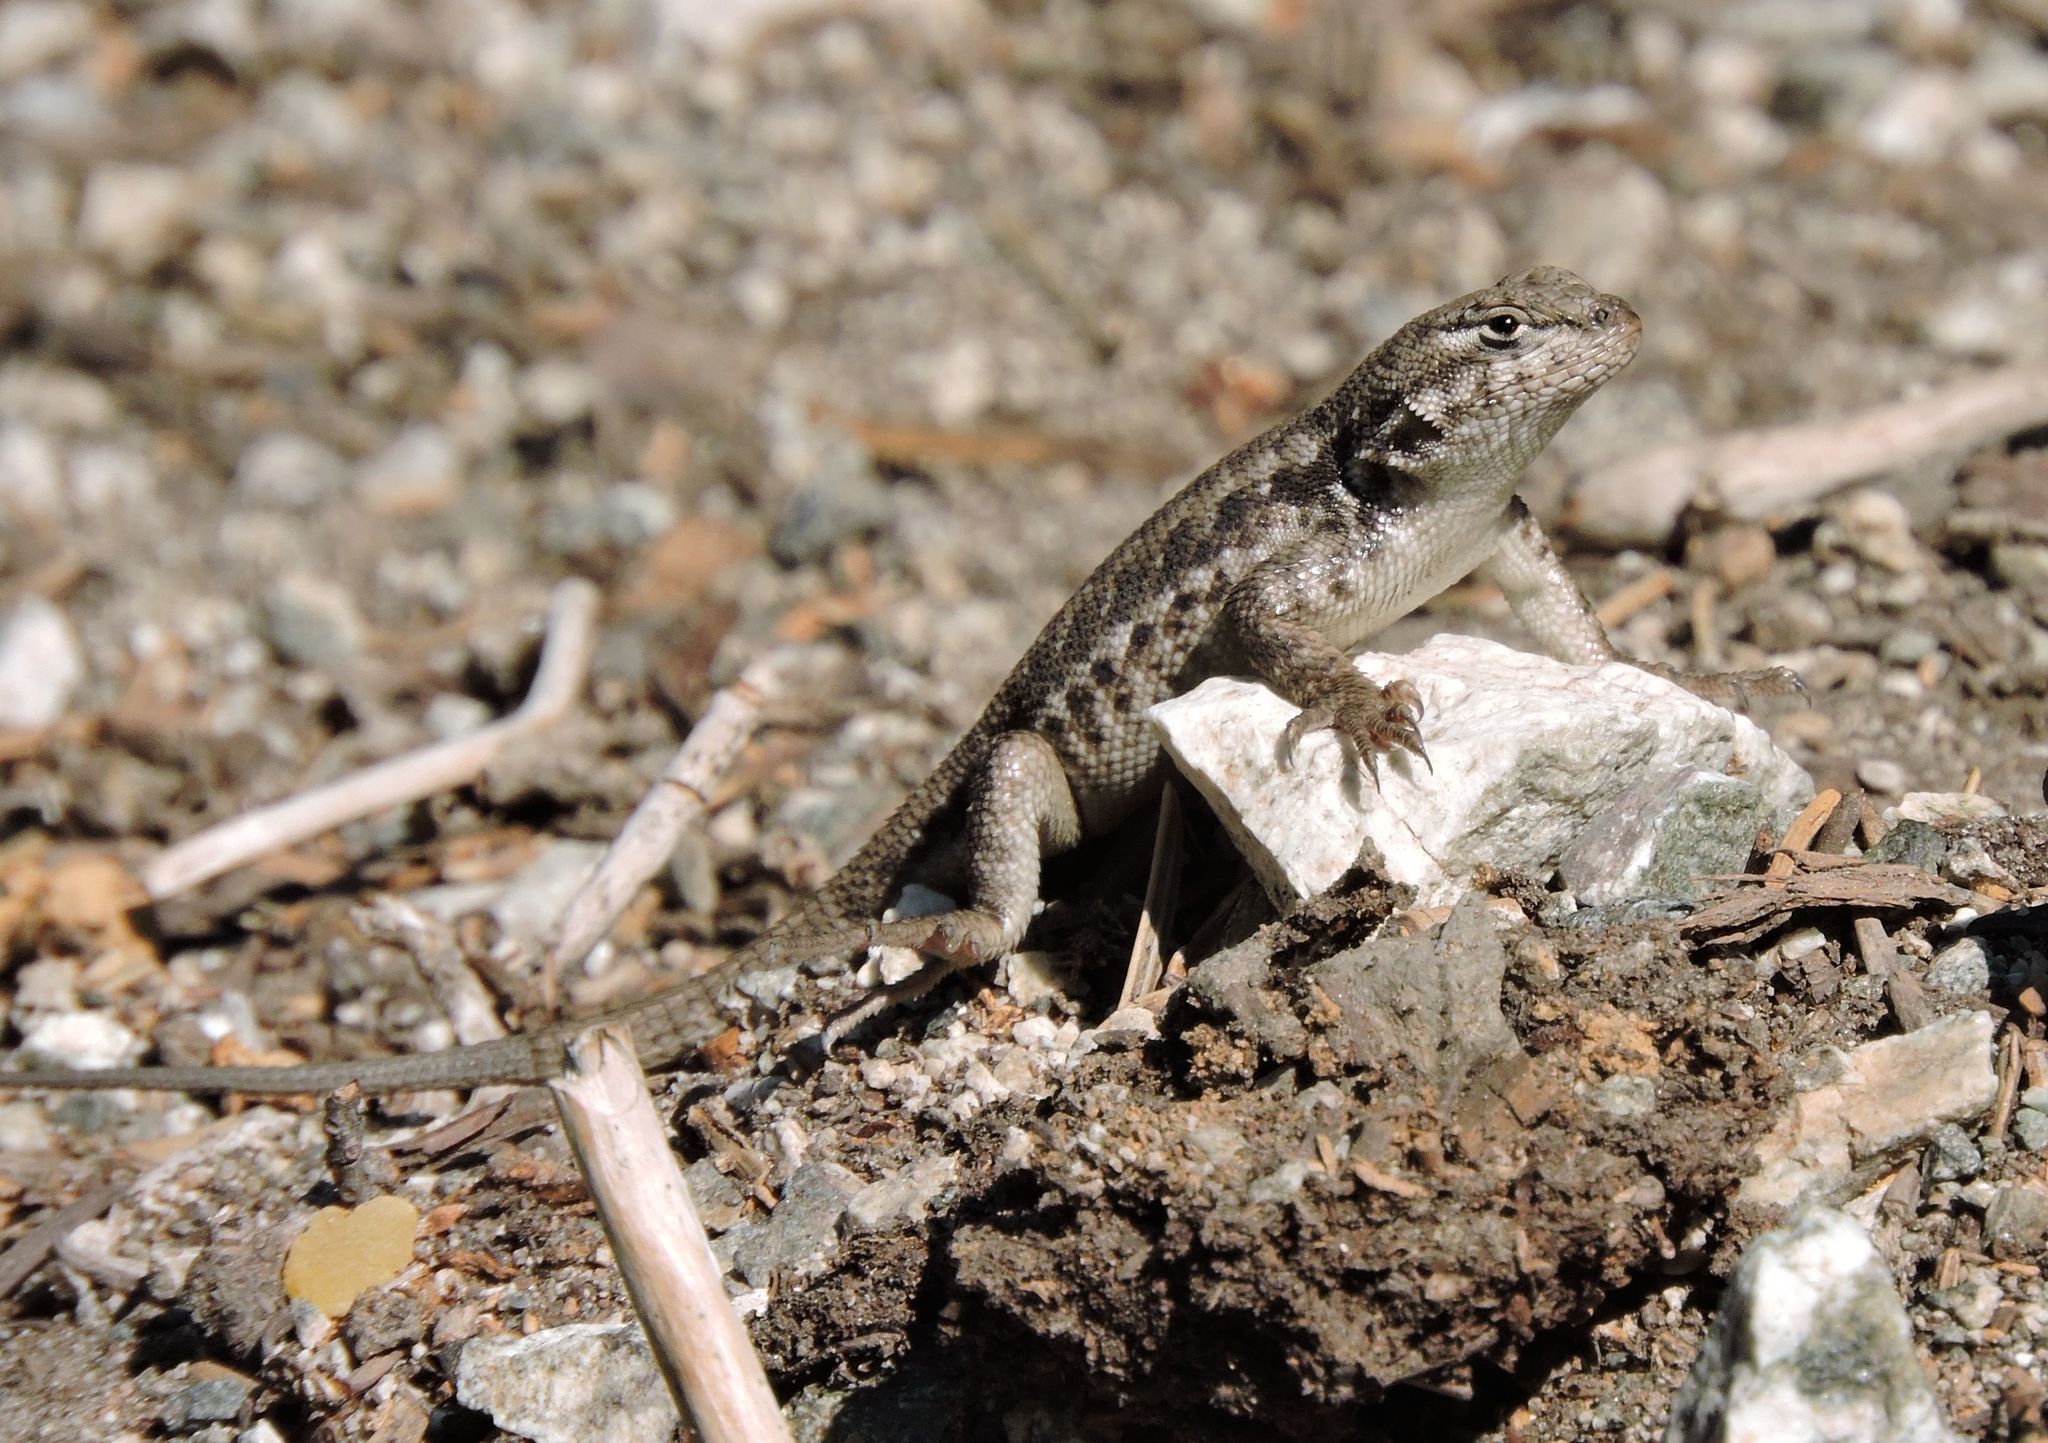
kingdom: Animalia
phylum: Chordata
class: Squamata
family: Phrynosomatidae
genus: Sceloporus
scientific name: Sceloporus graciosus
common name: Sagebrush lizard
